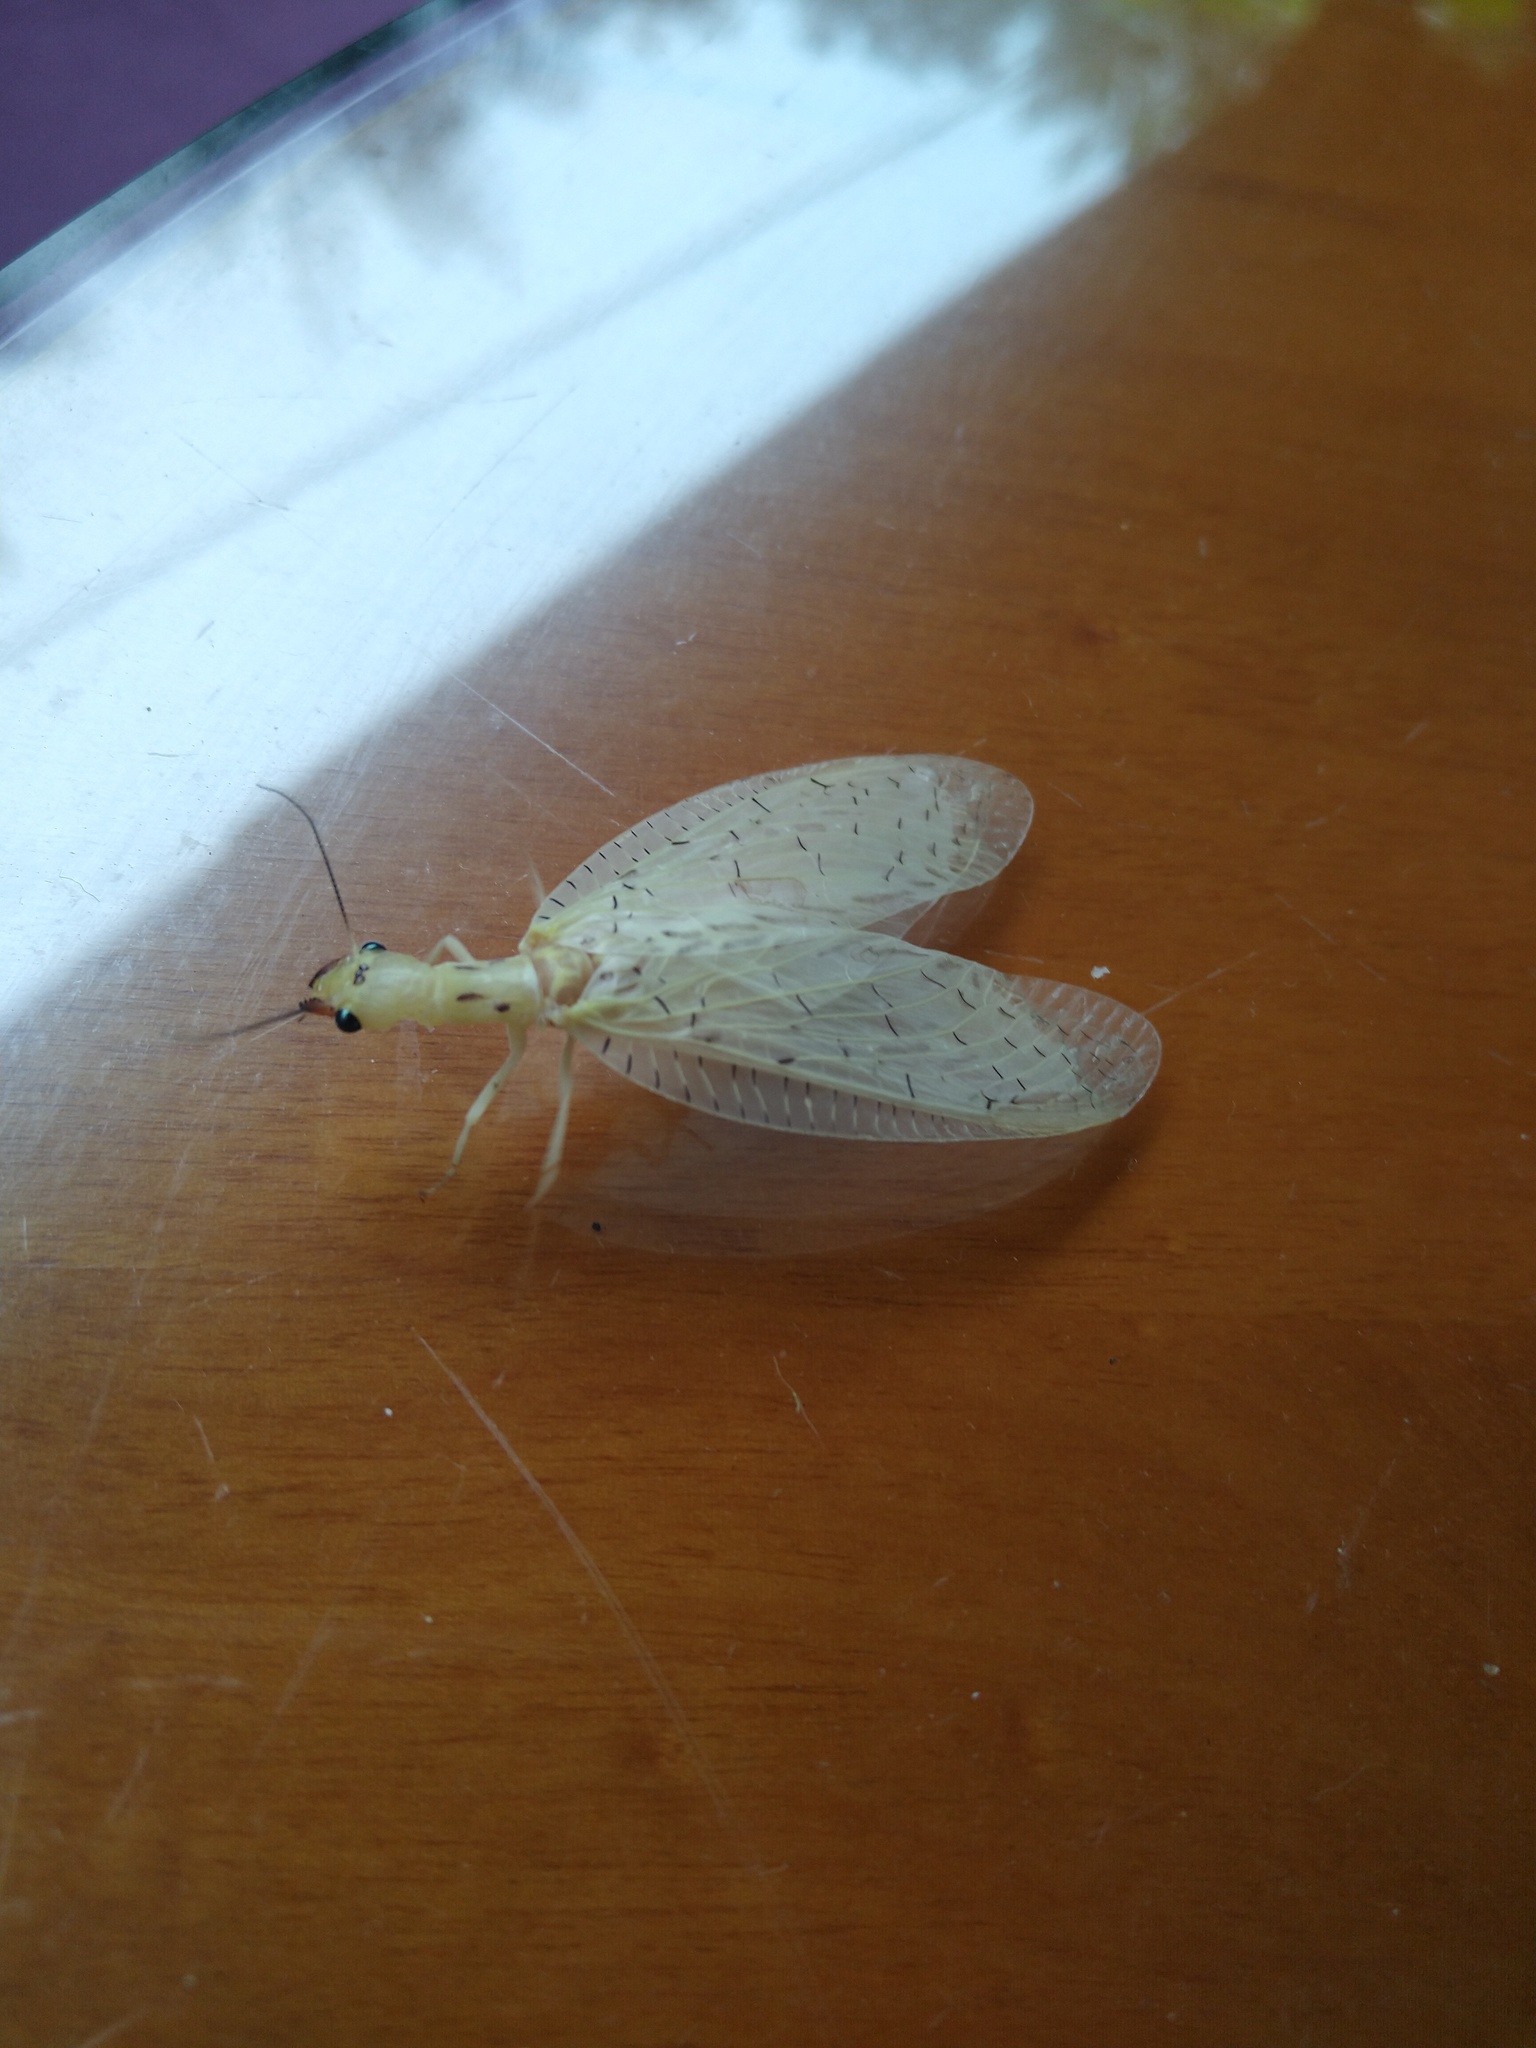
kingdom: Animalia
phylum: Arthropoda
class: Insecta
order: Megaloptera
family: Corydalidae
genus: Chloronia
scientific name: Chloronia corripiens
